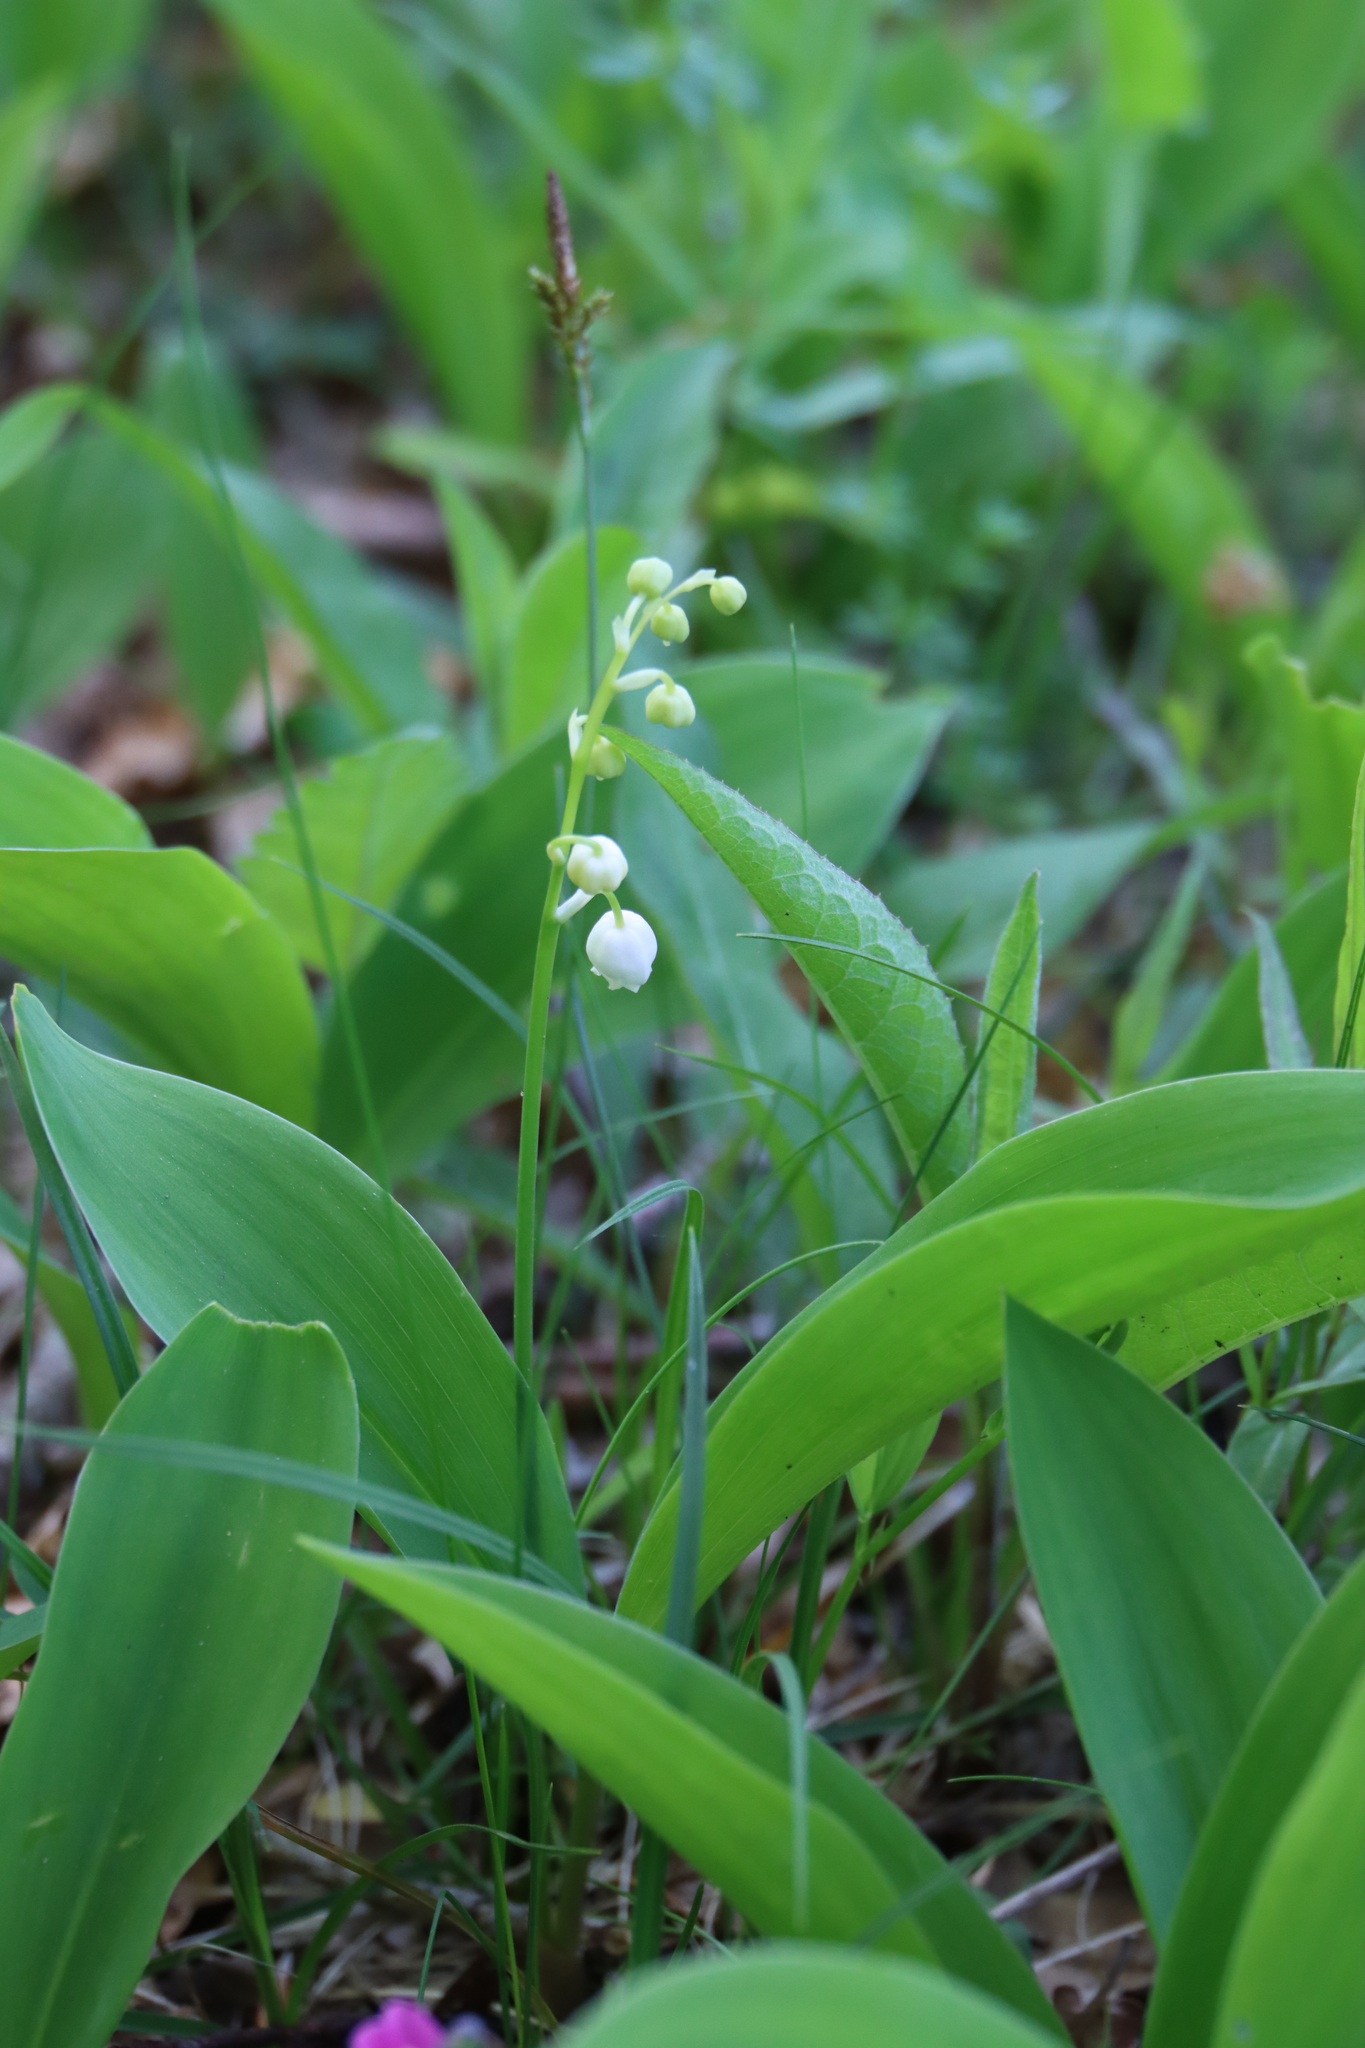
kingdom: Plantae
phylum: Tracheophyta
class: Liliopsida
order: Asparagales
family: Asparagaceae
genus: Convallaria
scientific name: Convallaria majalis
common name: Lily-of-the-valley
